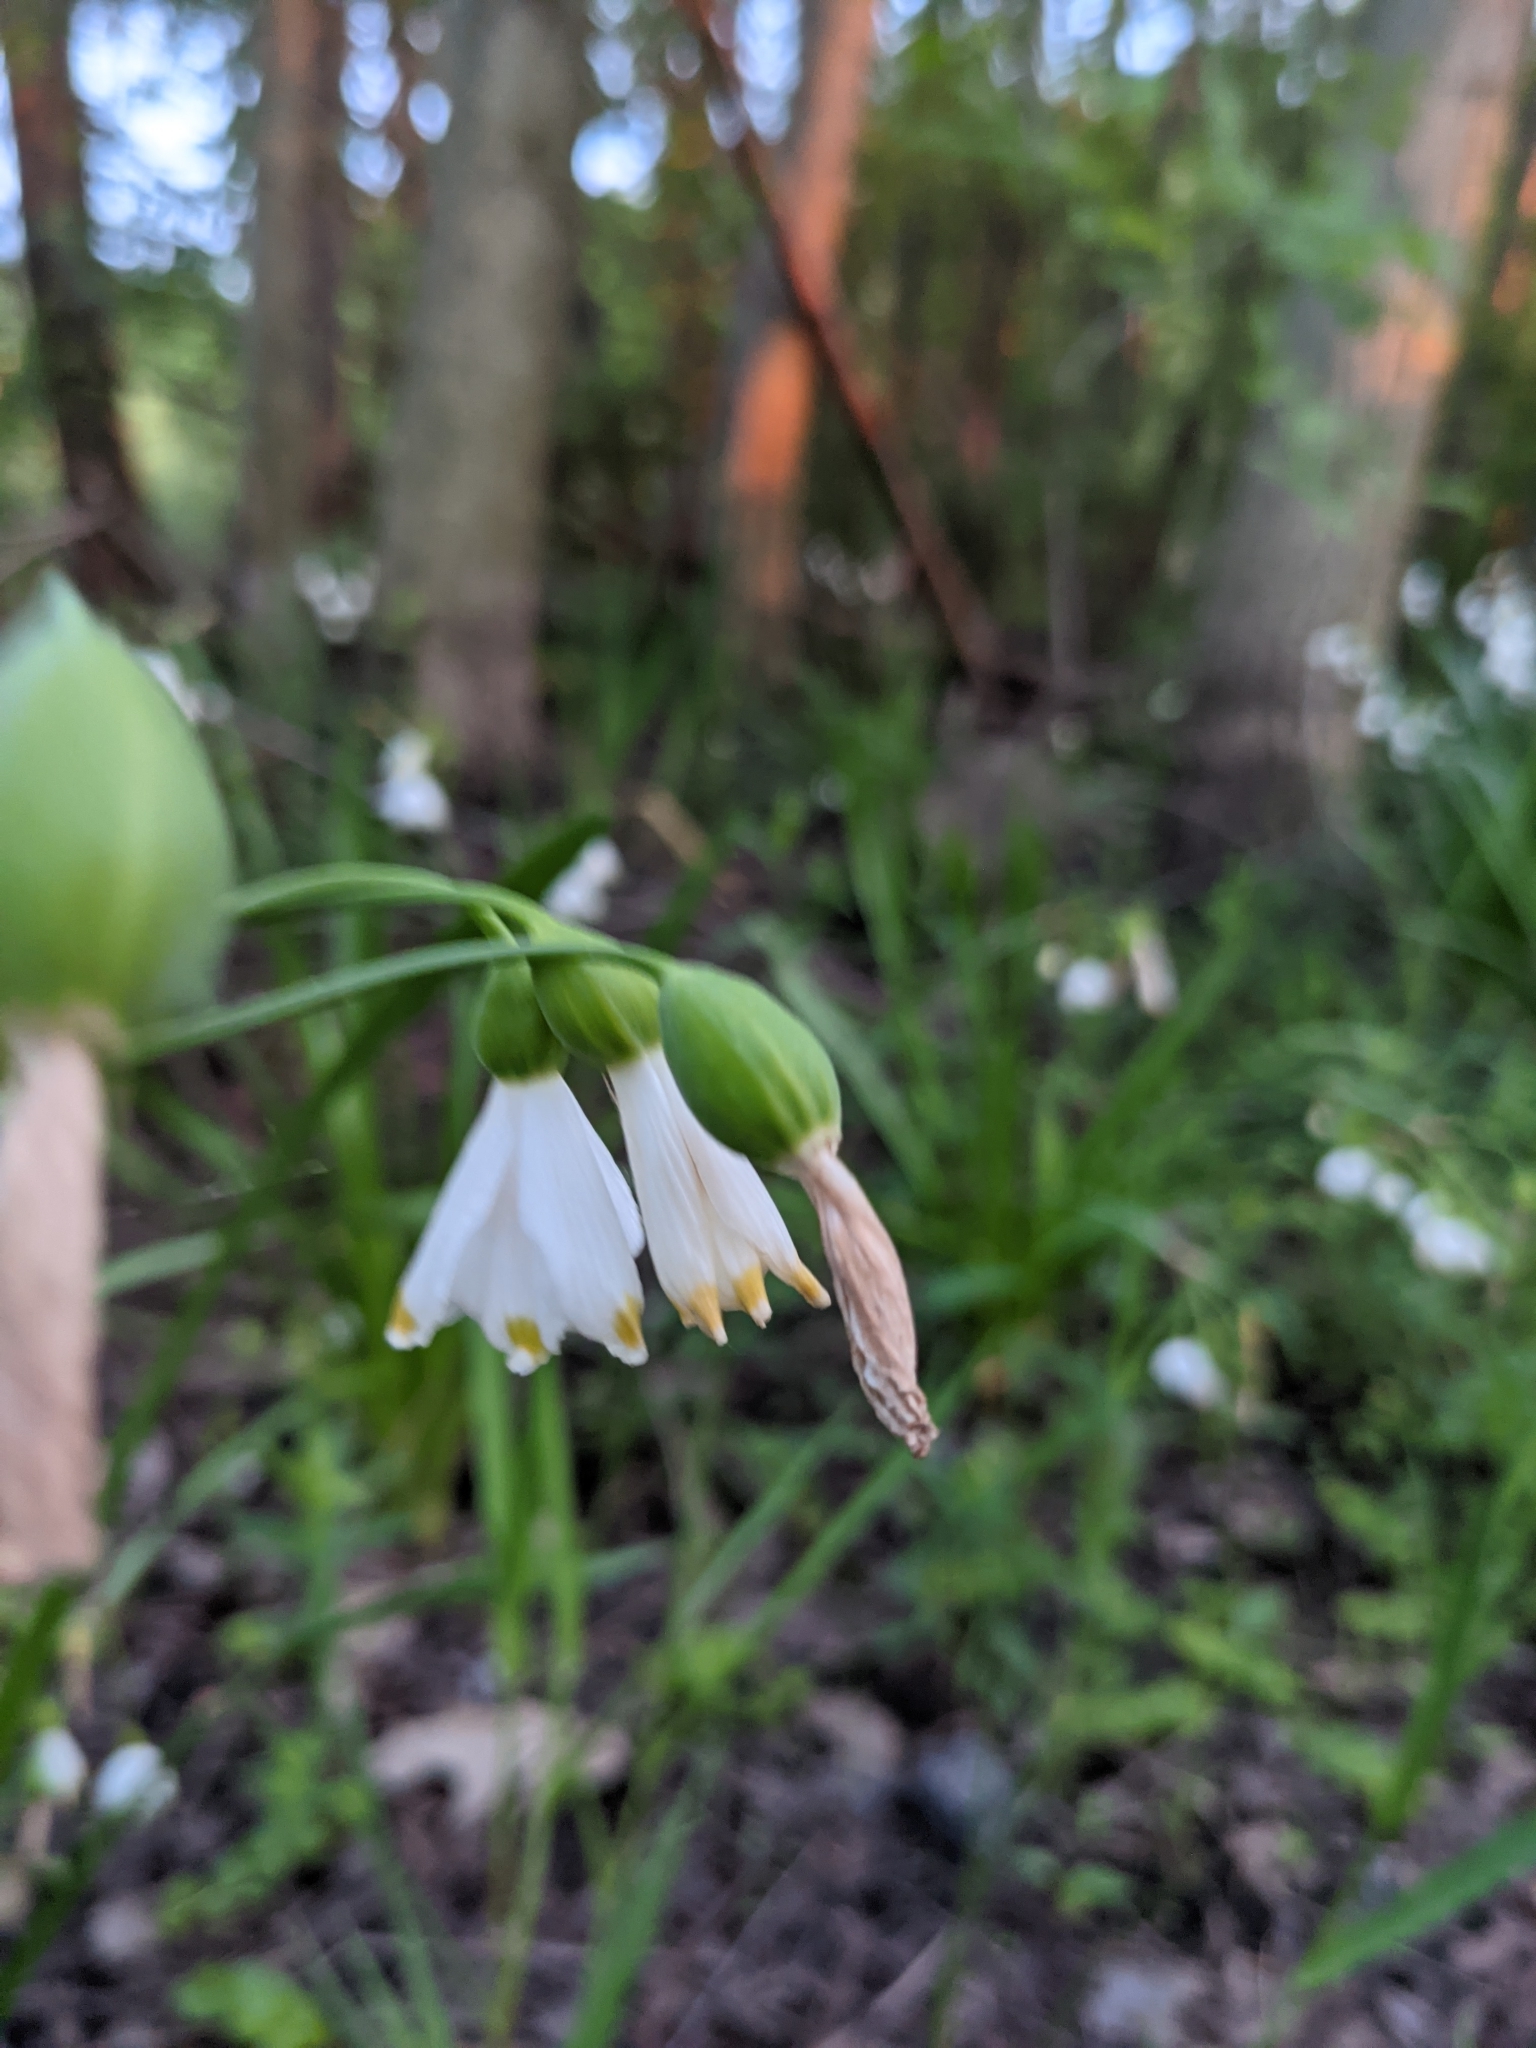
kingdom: Plantae
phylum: Tracheophyta
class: Liliopsida
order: Asparagales
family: Amaryllidaceae
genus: Leucojum
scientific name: Leucojum aestivum
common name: Summer snowflake
